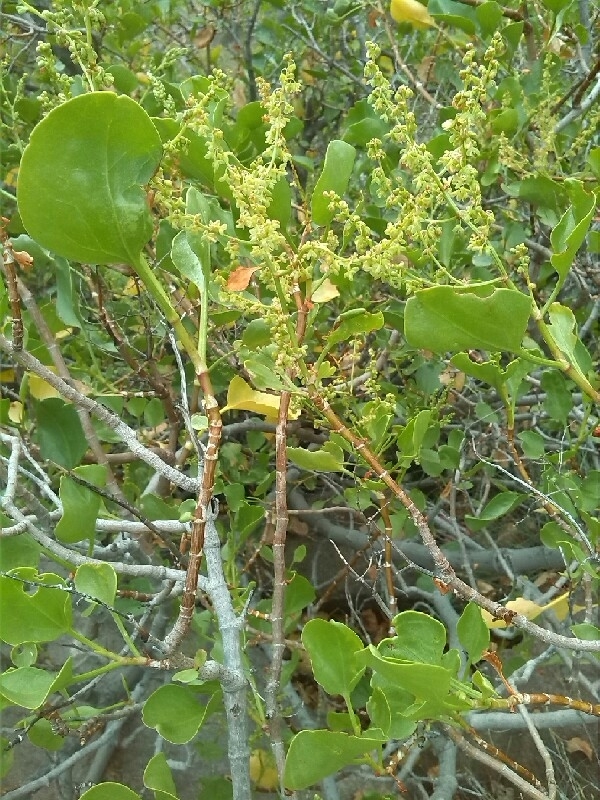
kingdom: Plantae
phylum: Tracheophyta
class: Magnoliopsida
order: Caryophyllales
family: Polygonaceae
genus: Rumex
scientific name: Rumex lunaria
